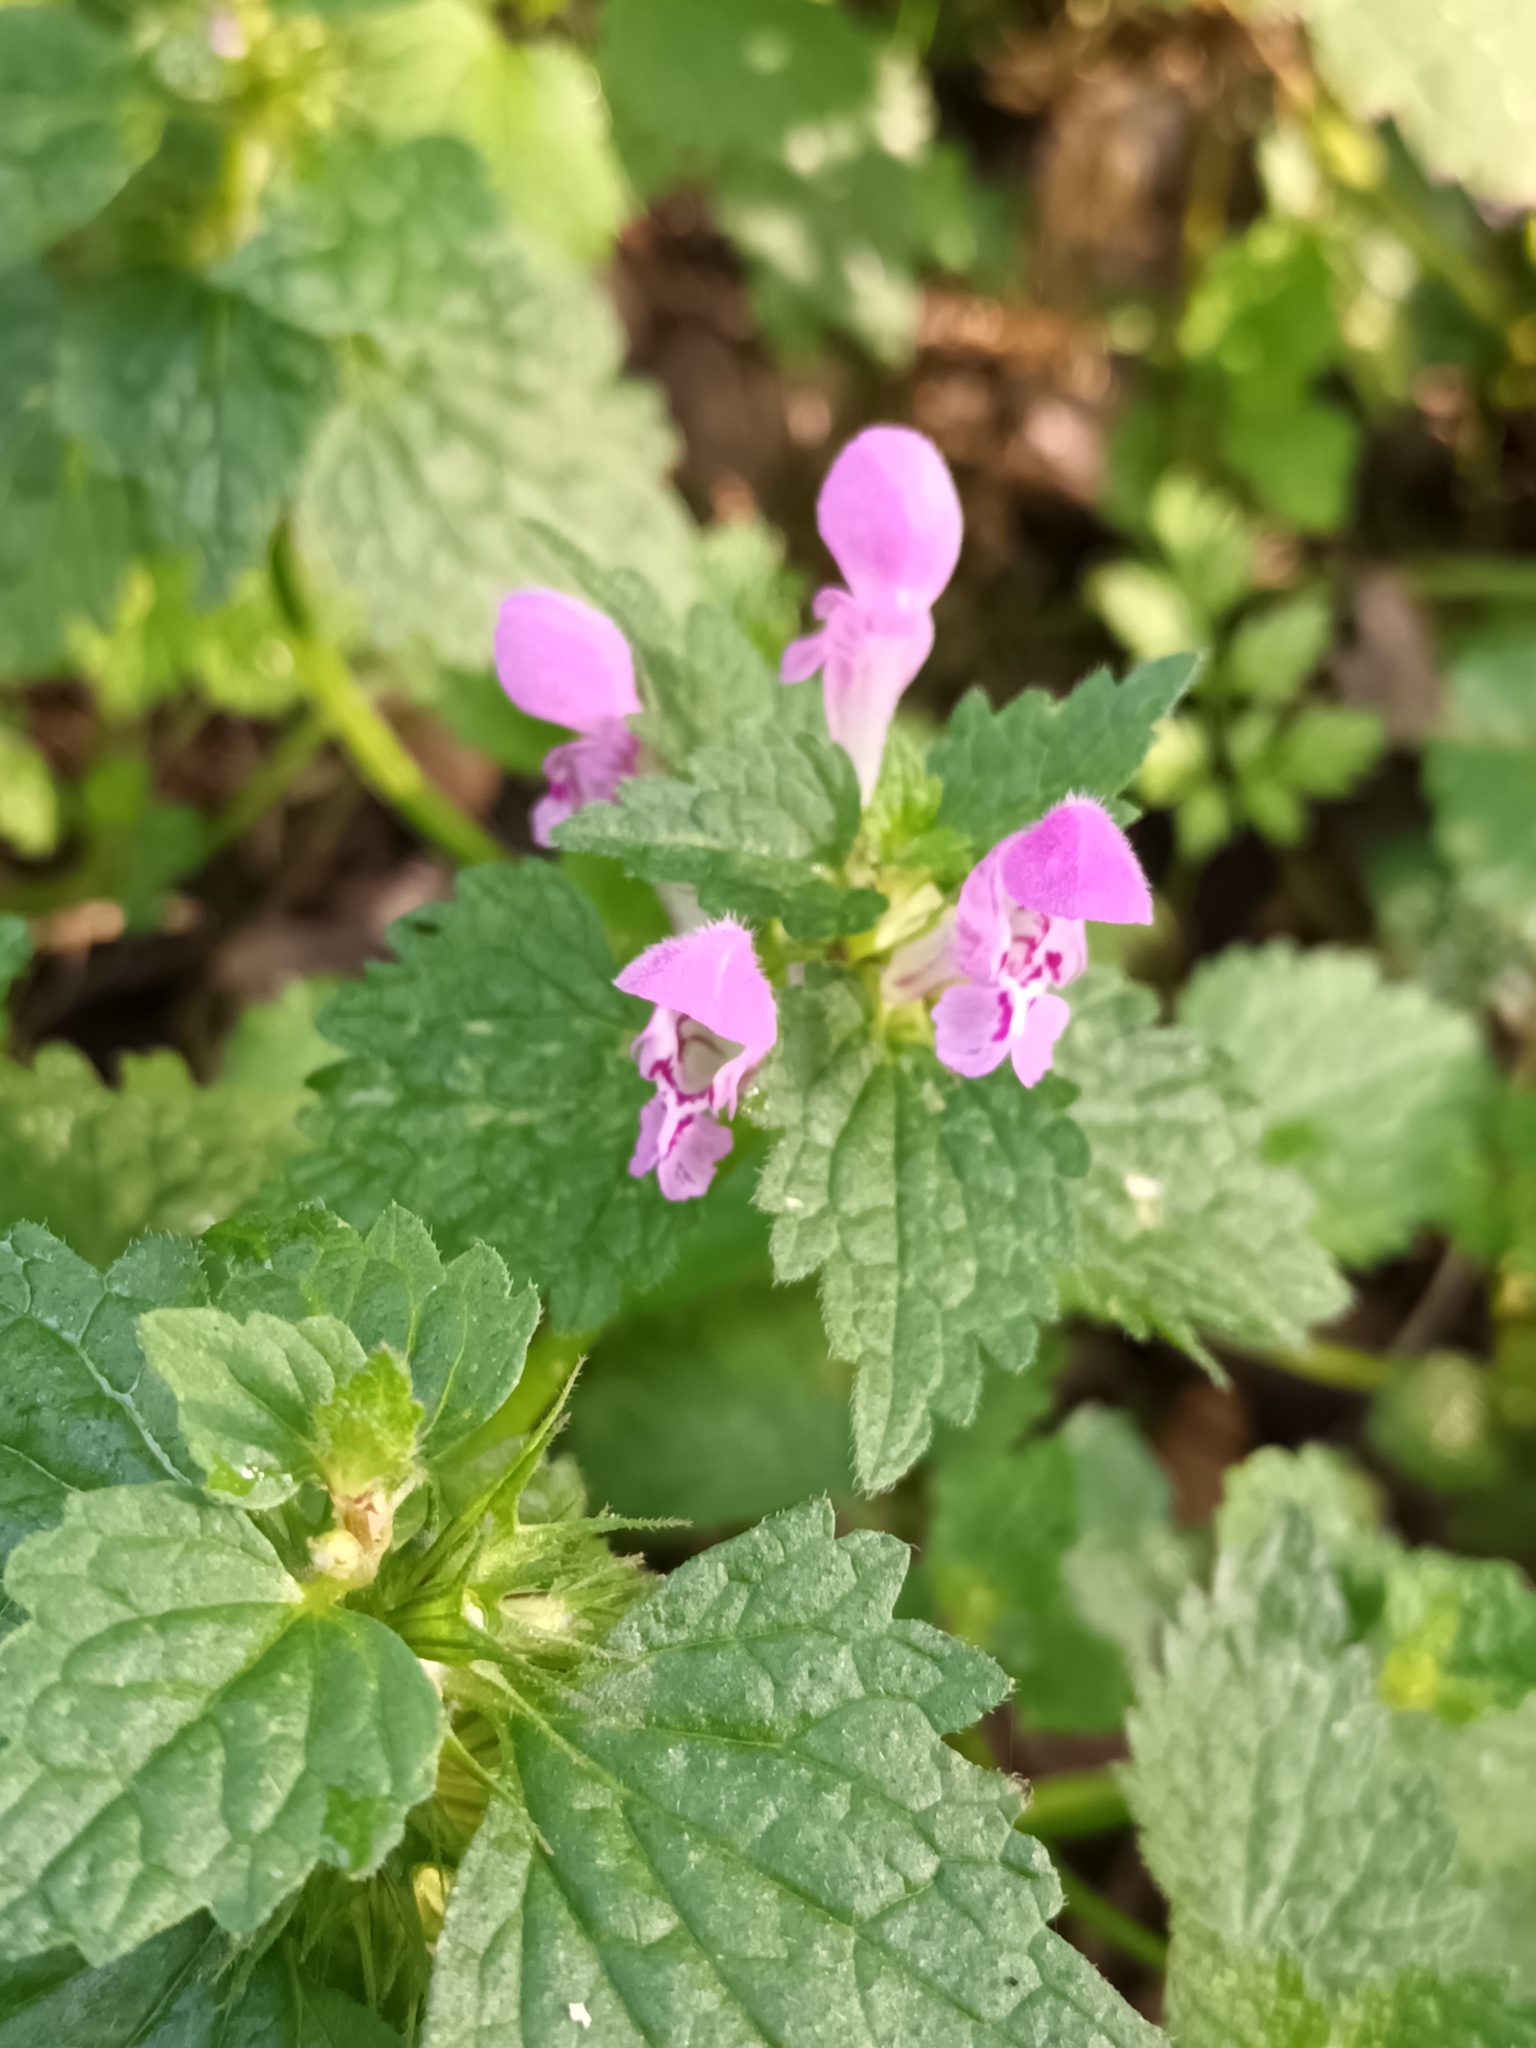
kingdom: Plantae
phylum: Tracheophyta
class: Magnoliopsida
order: Lamiales
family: Lamiaceae
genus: Lamium
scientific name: Lamium maculatum
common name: Spotted dead-nettle
